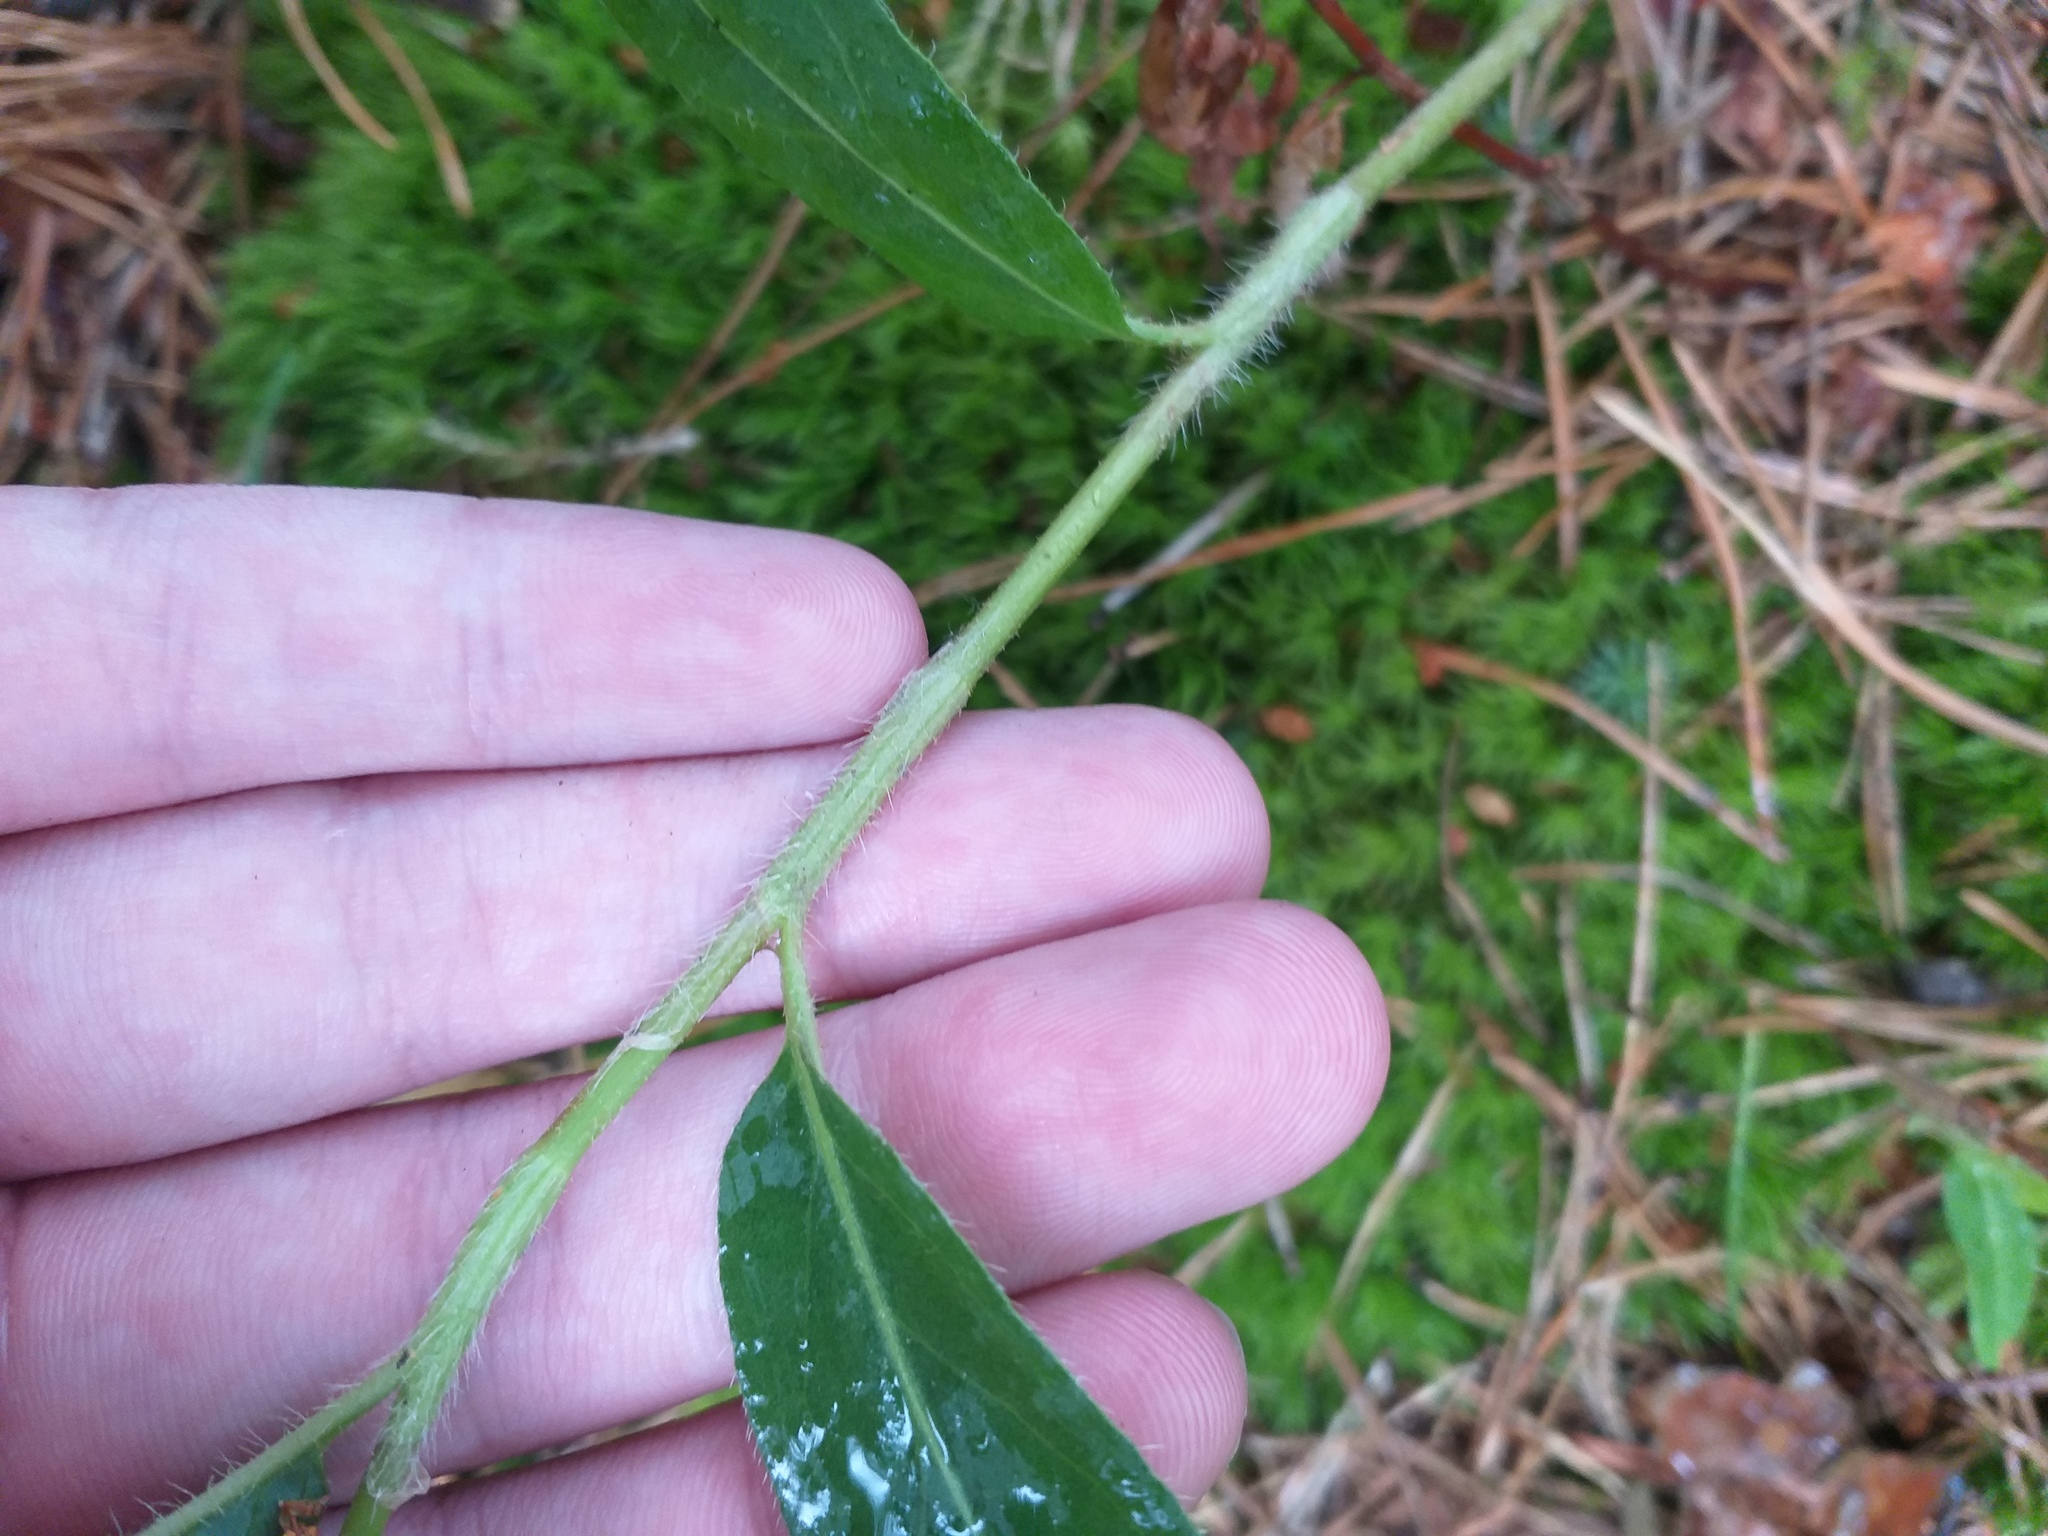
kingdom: Plantae
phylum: Tracheophyta
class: Magnoliopsida
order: Caryophyllales
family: Polygonaceae
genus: Persicaria
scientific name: Persicaria amphibia
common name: Amphibious bistort
